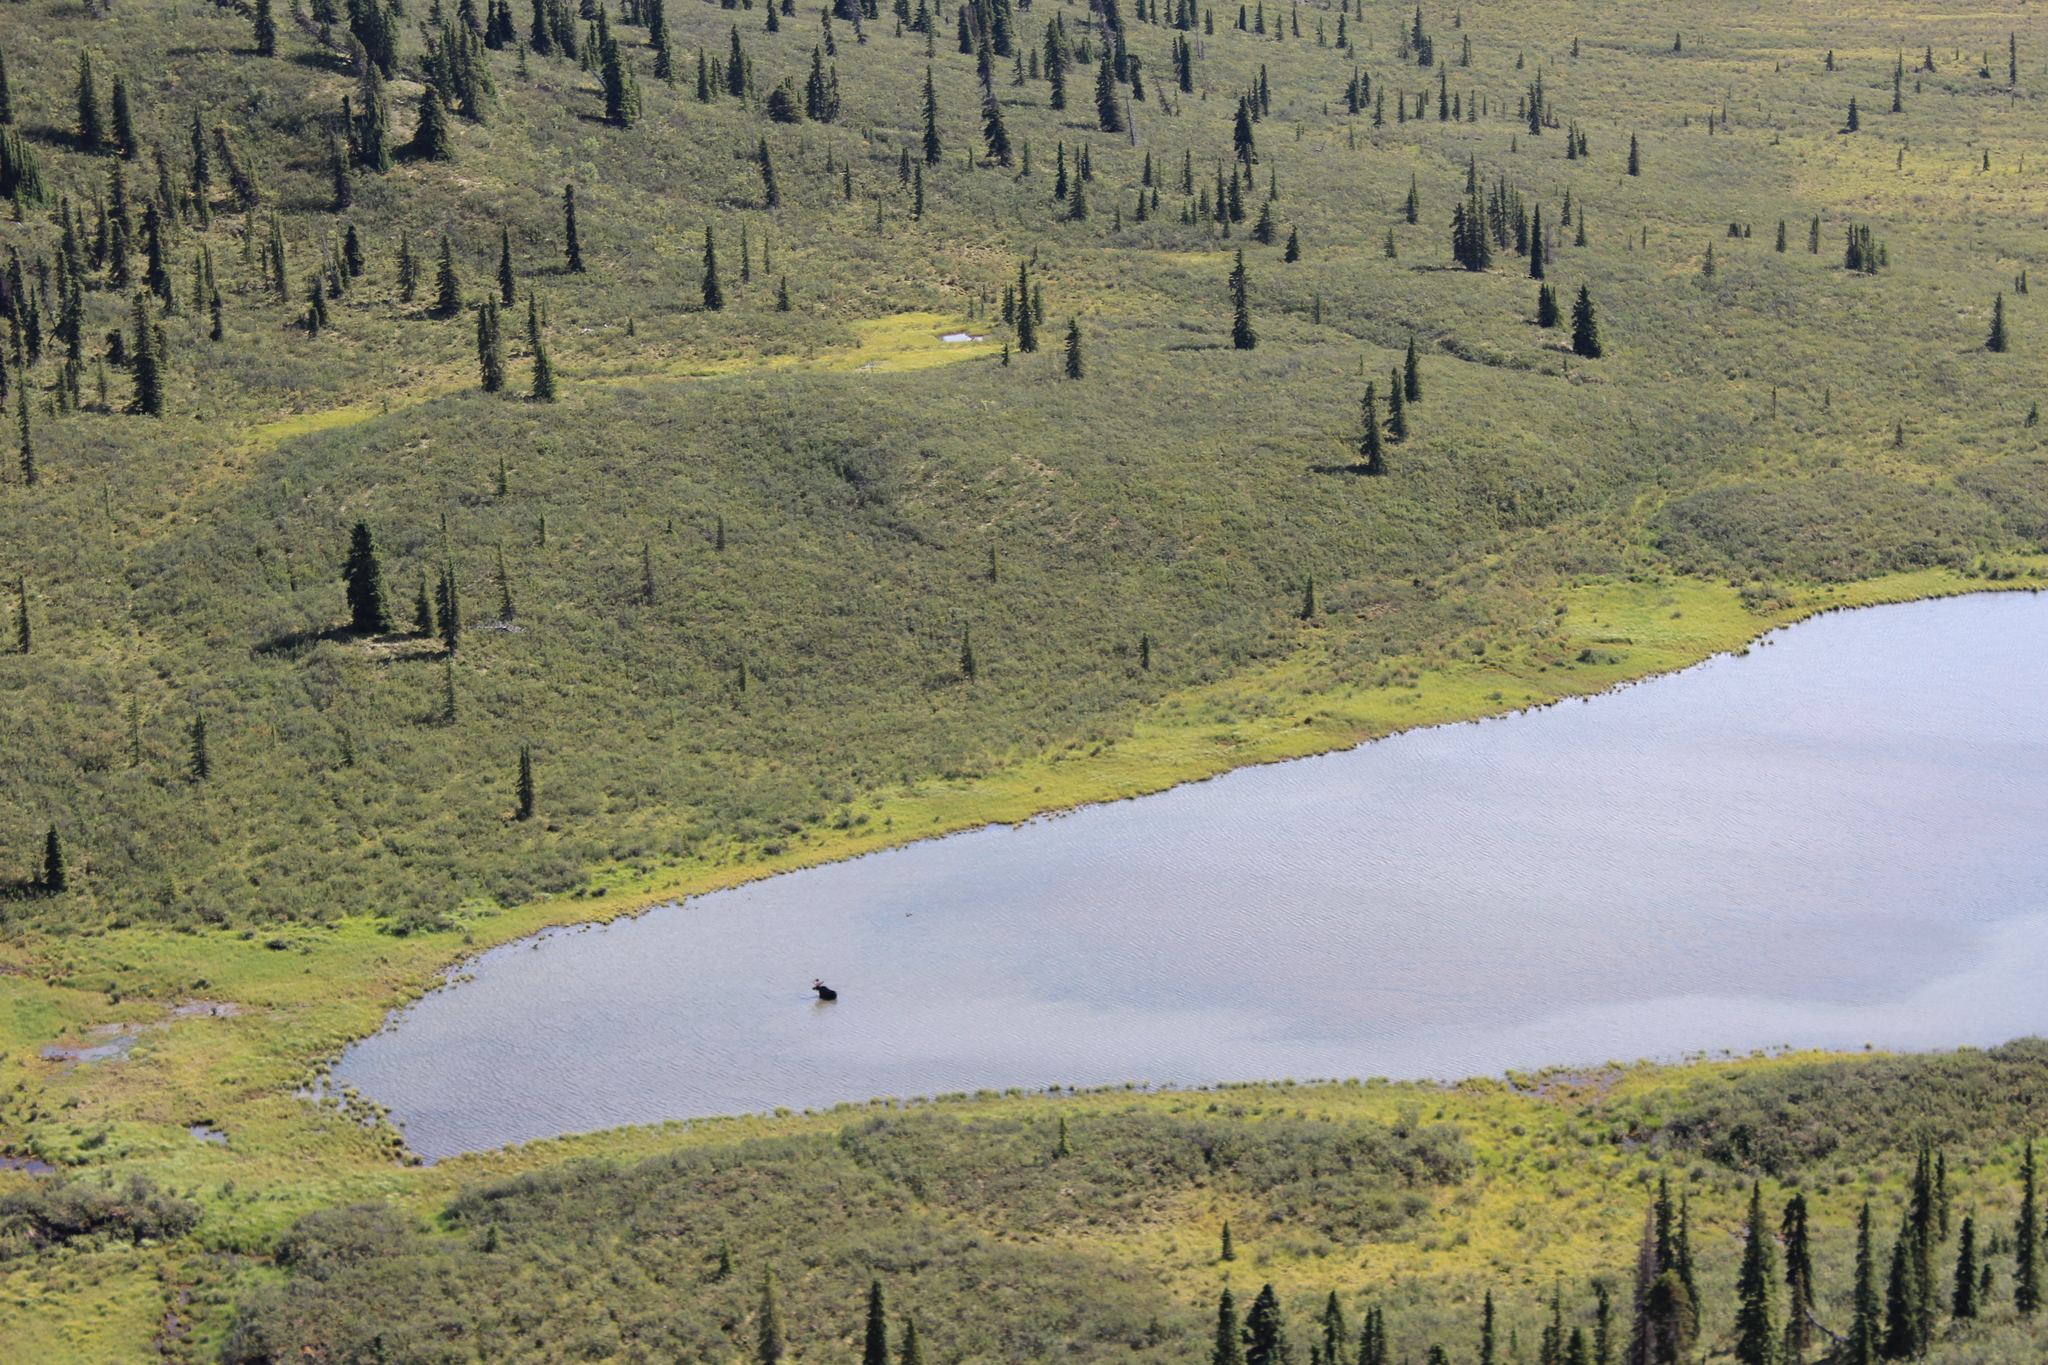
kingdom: Animalia
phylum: Chordata
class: Mammalia
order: Artiodactyla
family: Cervidae
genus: Alces
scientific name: Alces alces
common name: Moose
